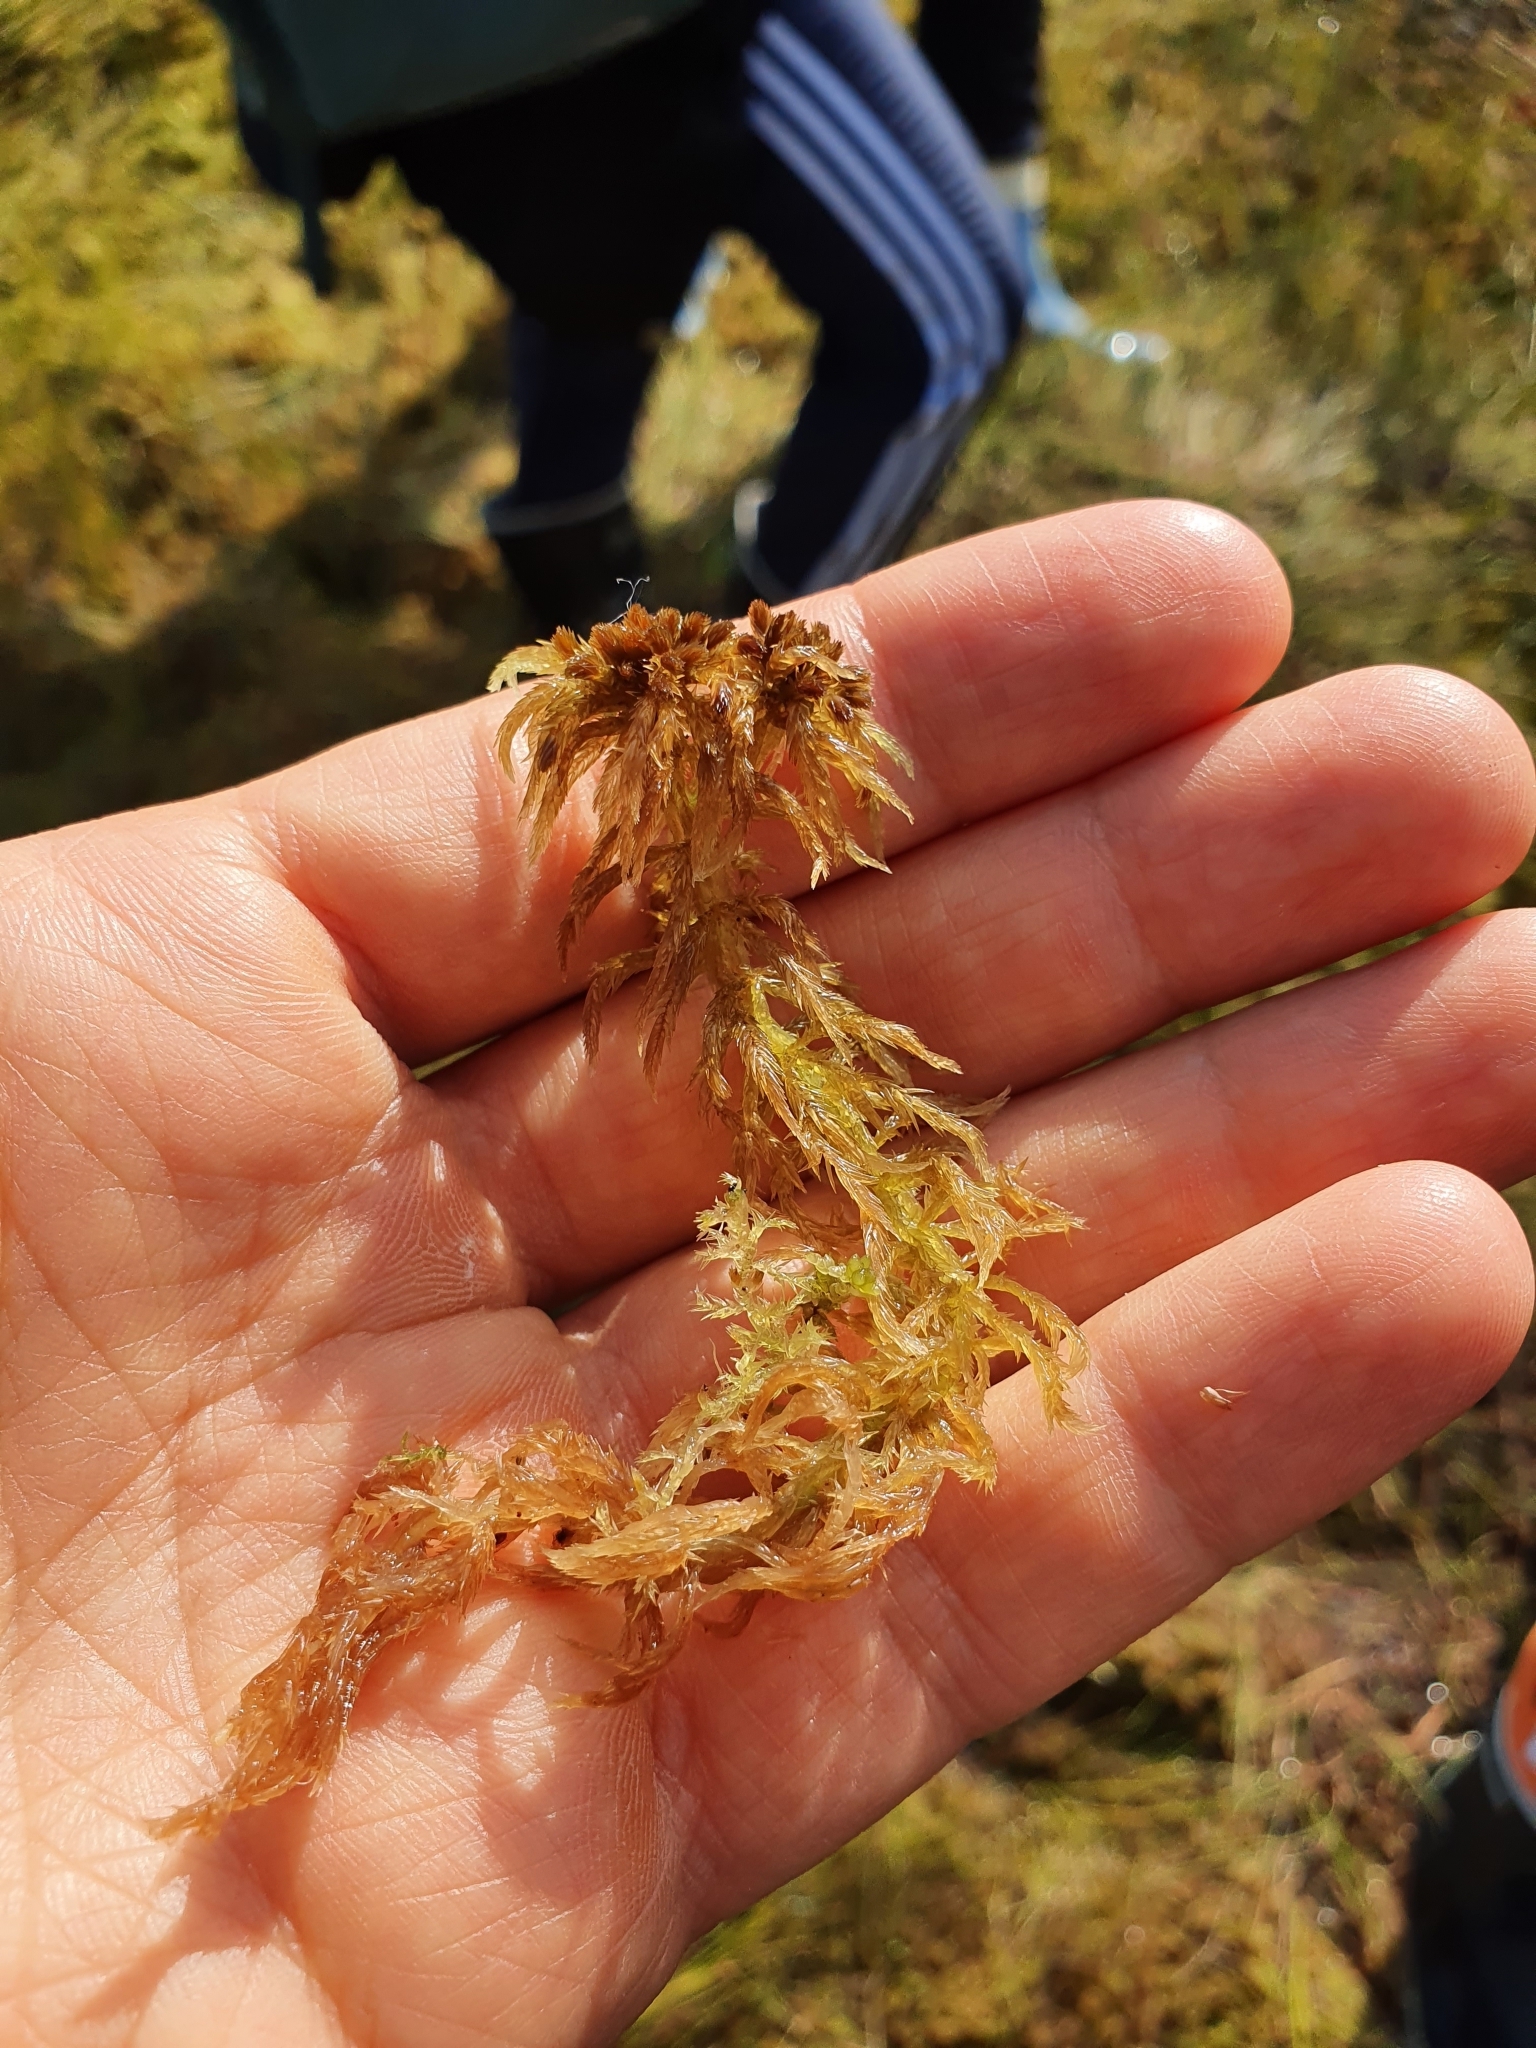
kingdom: Plantae
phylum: Bryophyta
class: Sphagnopsida
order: Sphagnales
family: Sphagnaceae
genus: Sphagnum
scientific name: Sphagnum majus
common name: Olive bog-moss
